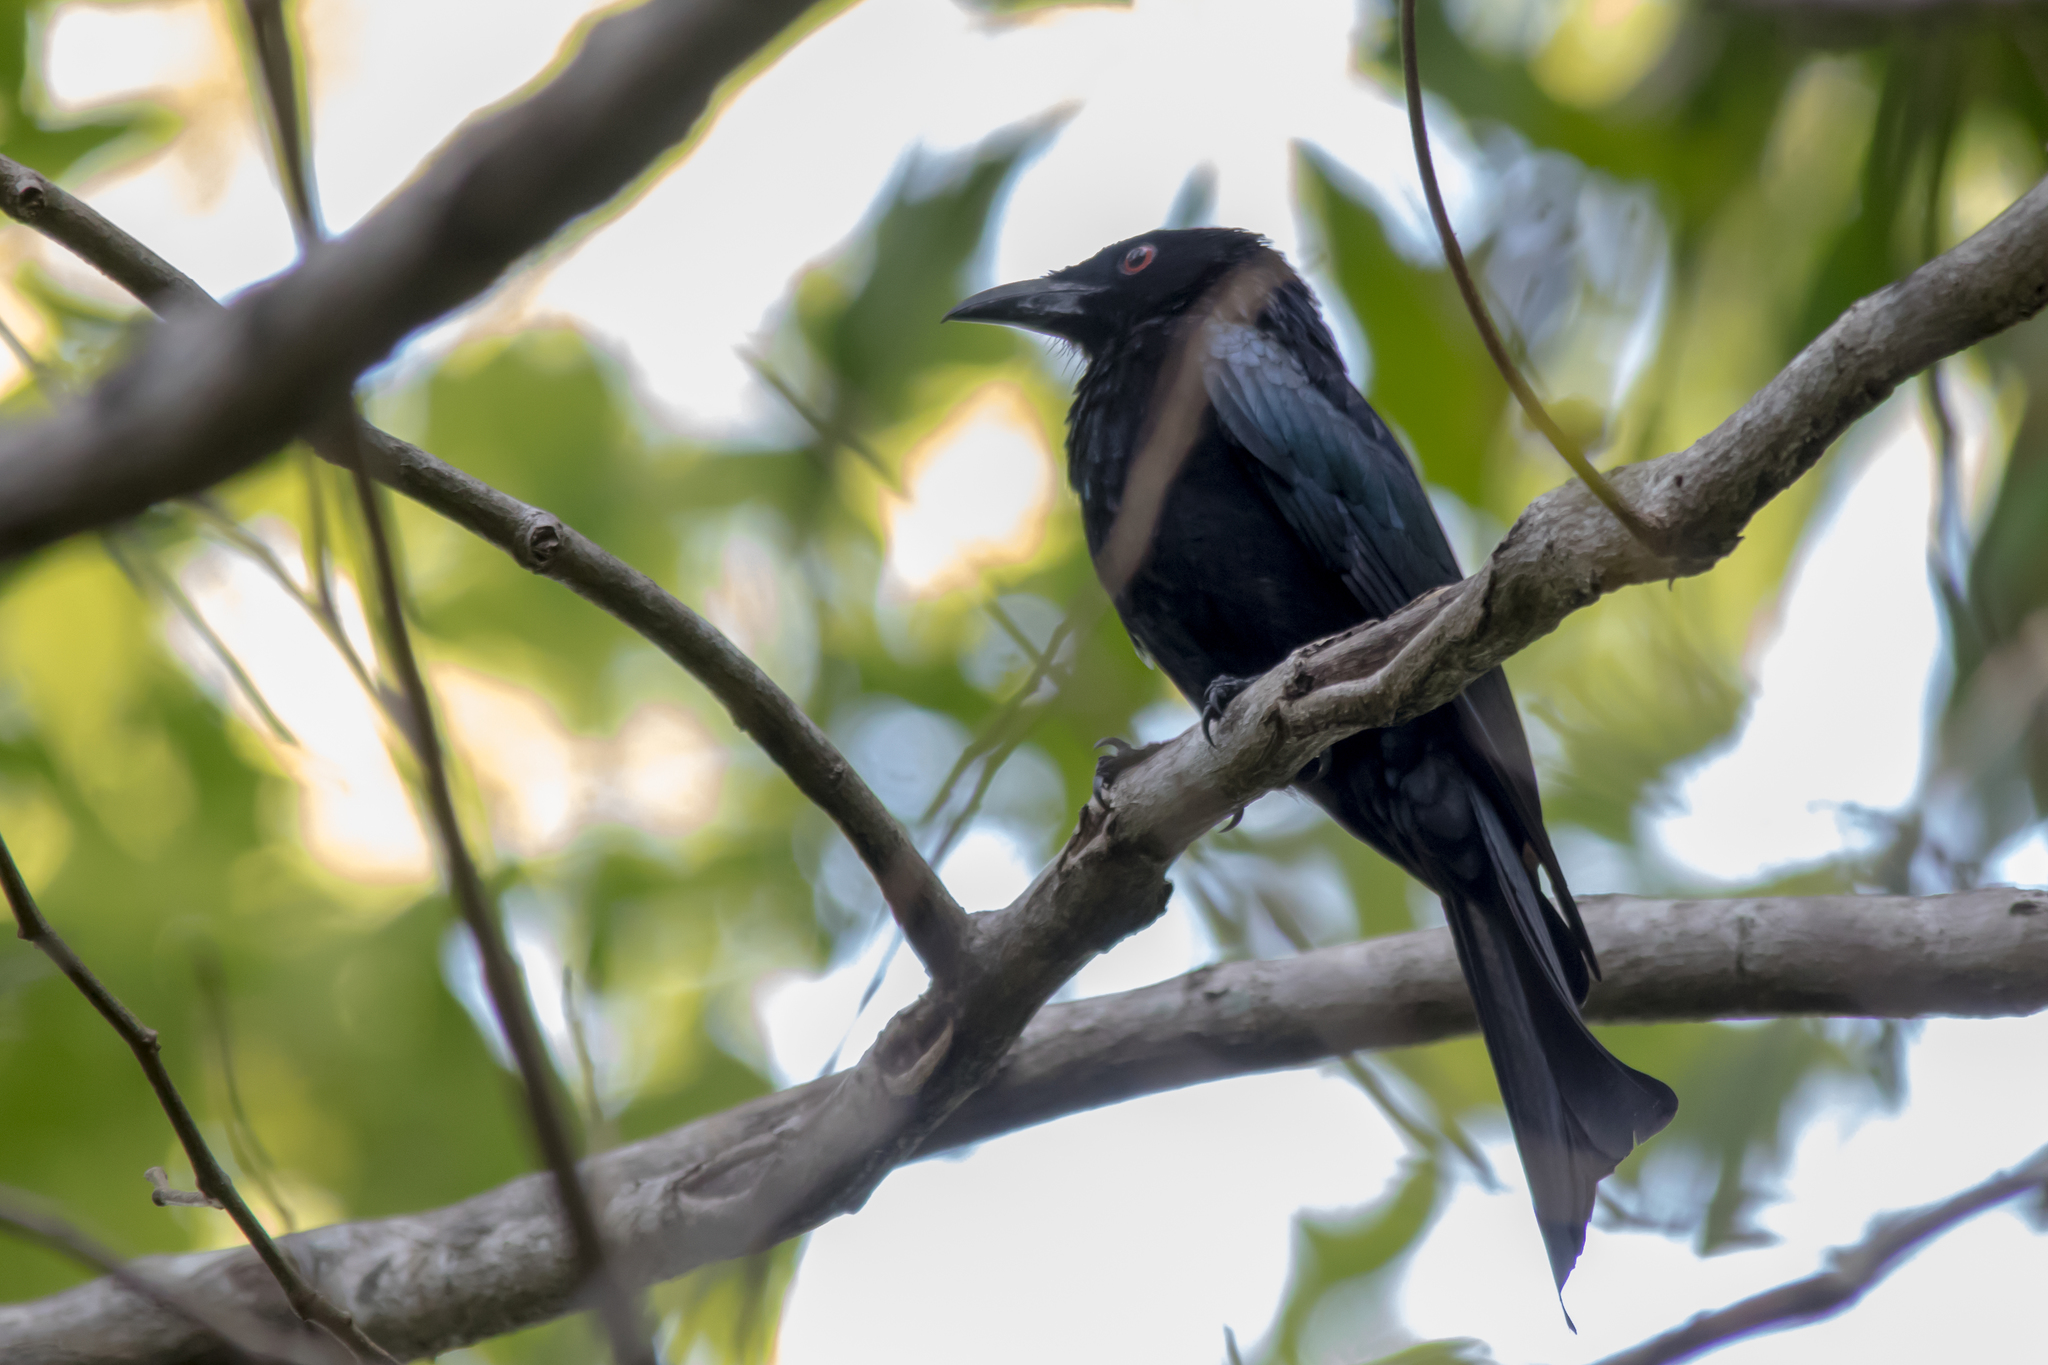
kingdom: Animalia
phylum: Chordata
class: Aves
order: Passeriformes
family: Dicruridae
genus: Dicrurus
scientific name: Dicrurus bracteatus
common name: Spangled drongo
